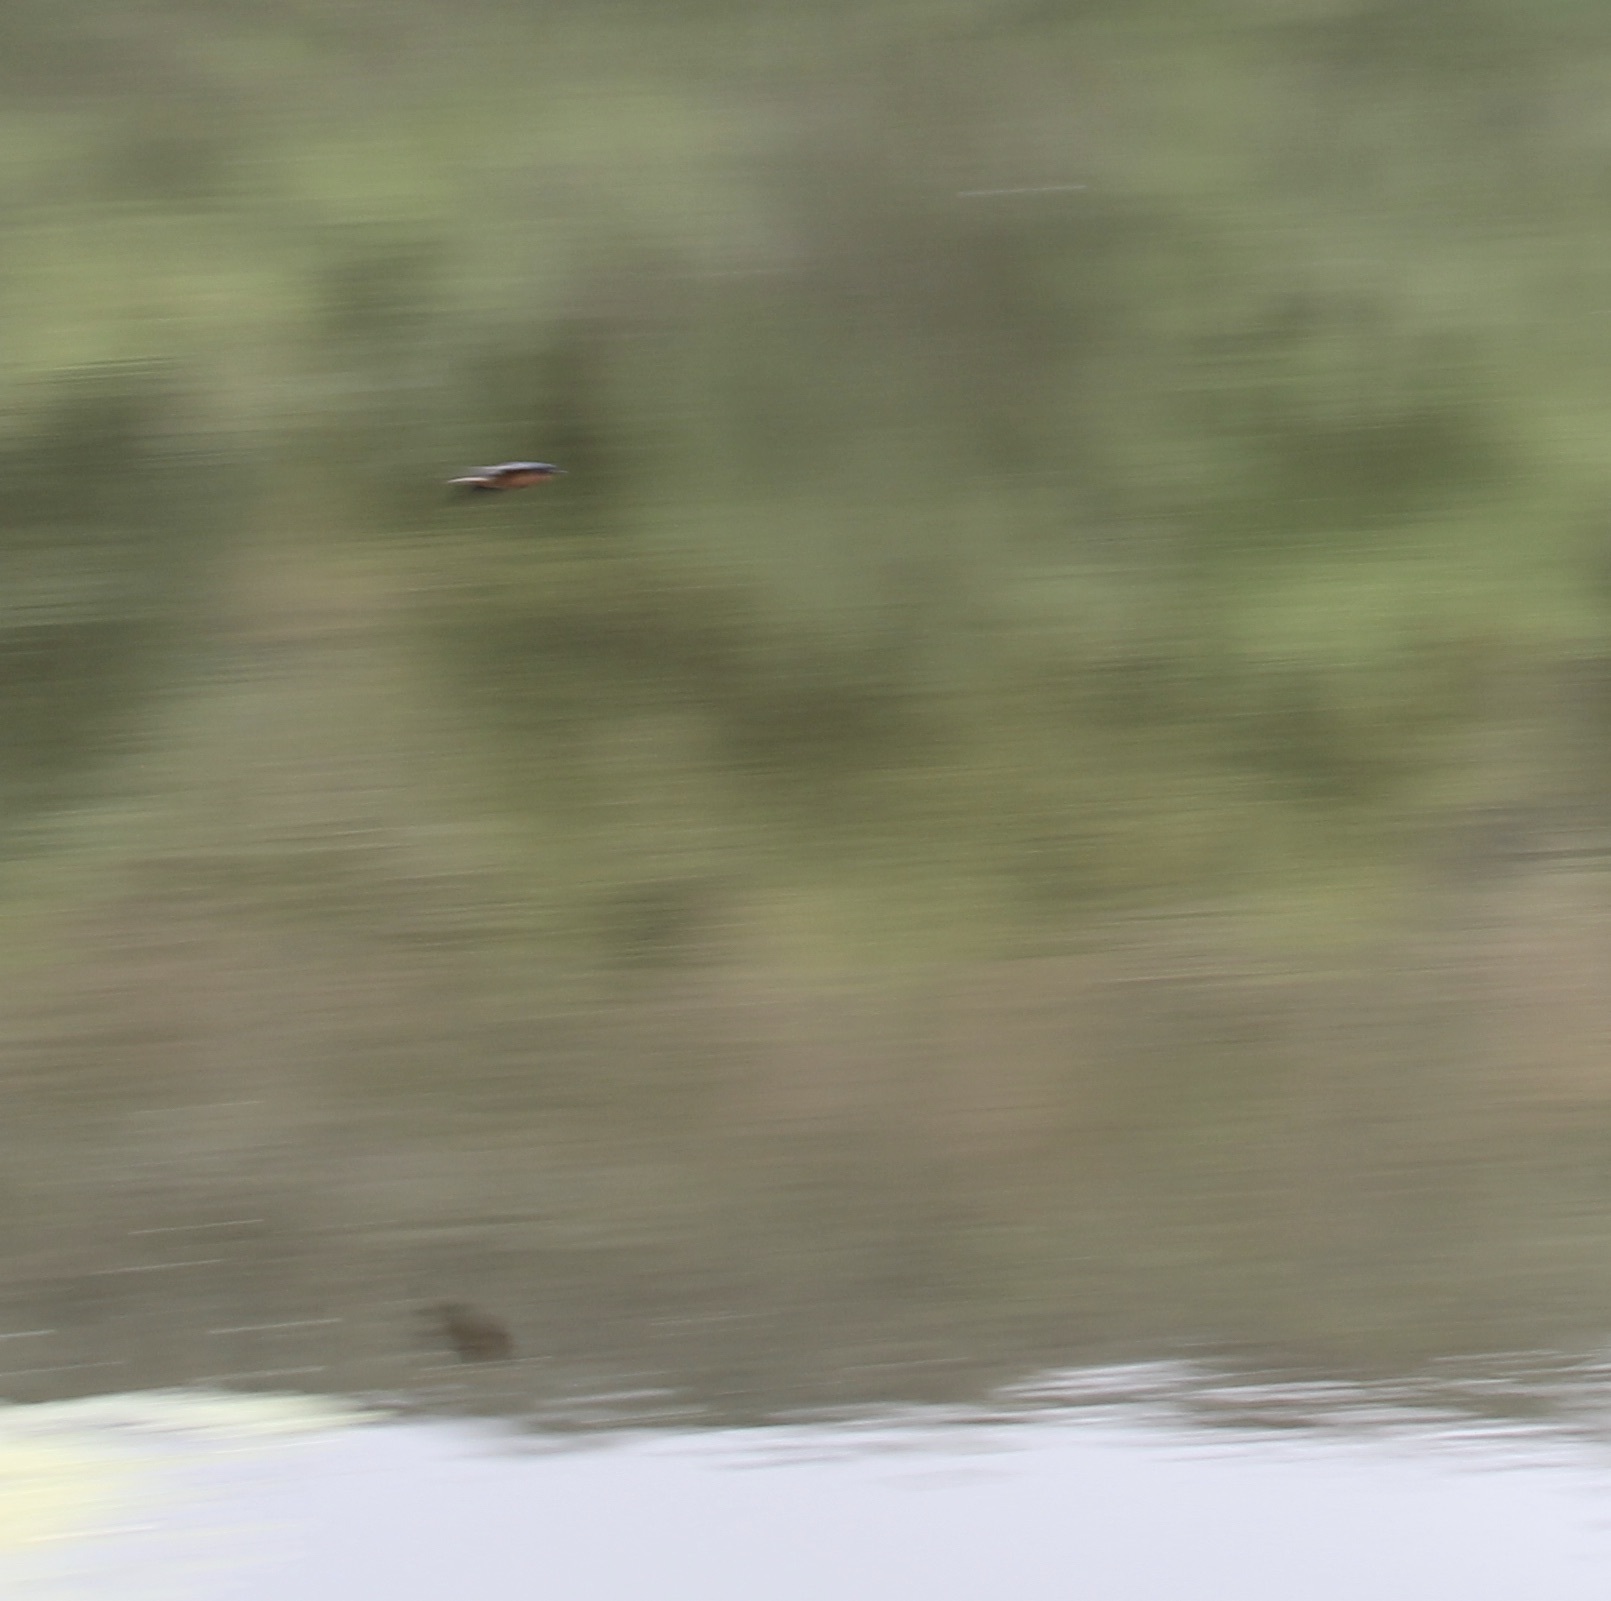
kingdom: Animalia
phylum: Chordata
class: Aves
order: Passeriformes
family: Hirundinidae
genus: Hirundo
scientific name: Hirundo rustica
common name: Barn swallow
